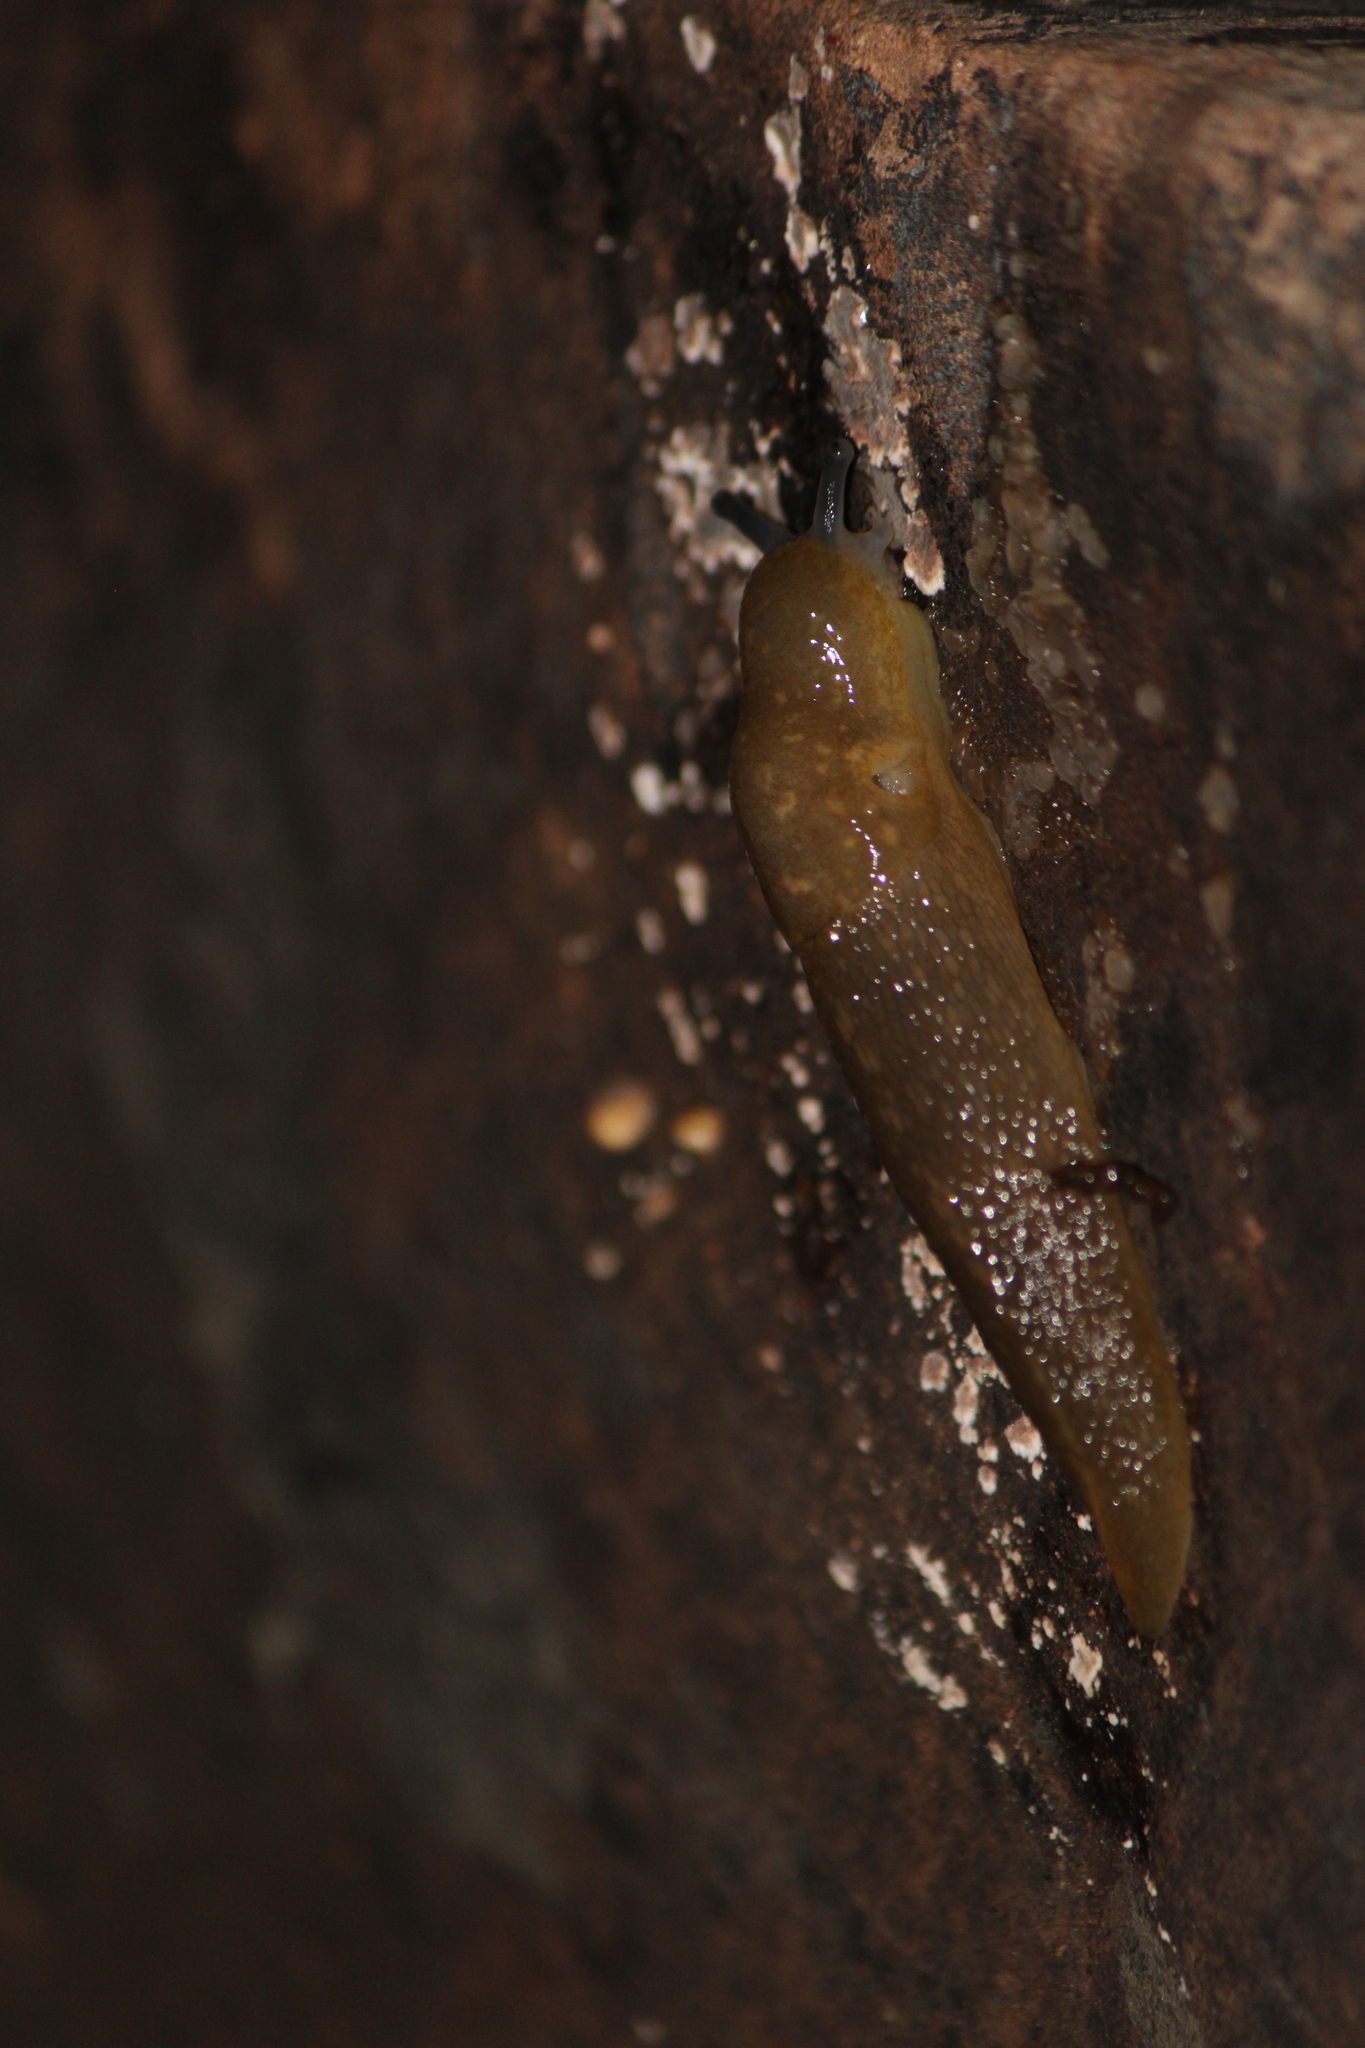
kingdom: Animalia
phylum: Mollusca
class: Gastropoda
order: Stylommatophora
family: Limacidae
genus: Limacus
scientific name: Limacus flavus
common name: Yellow gardenslug
